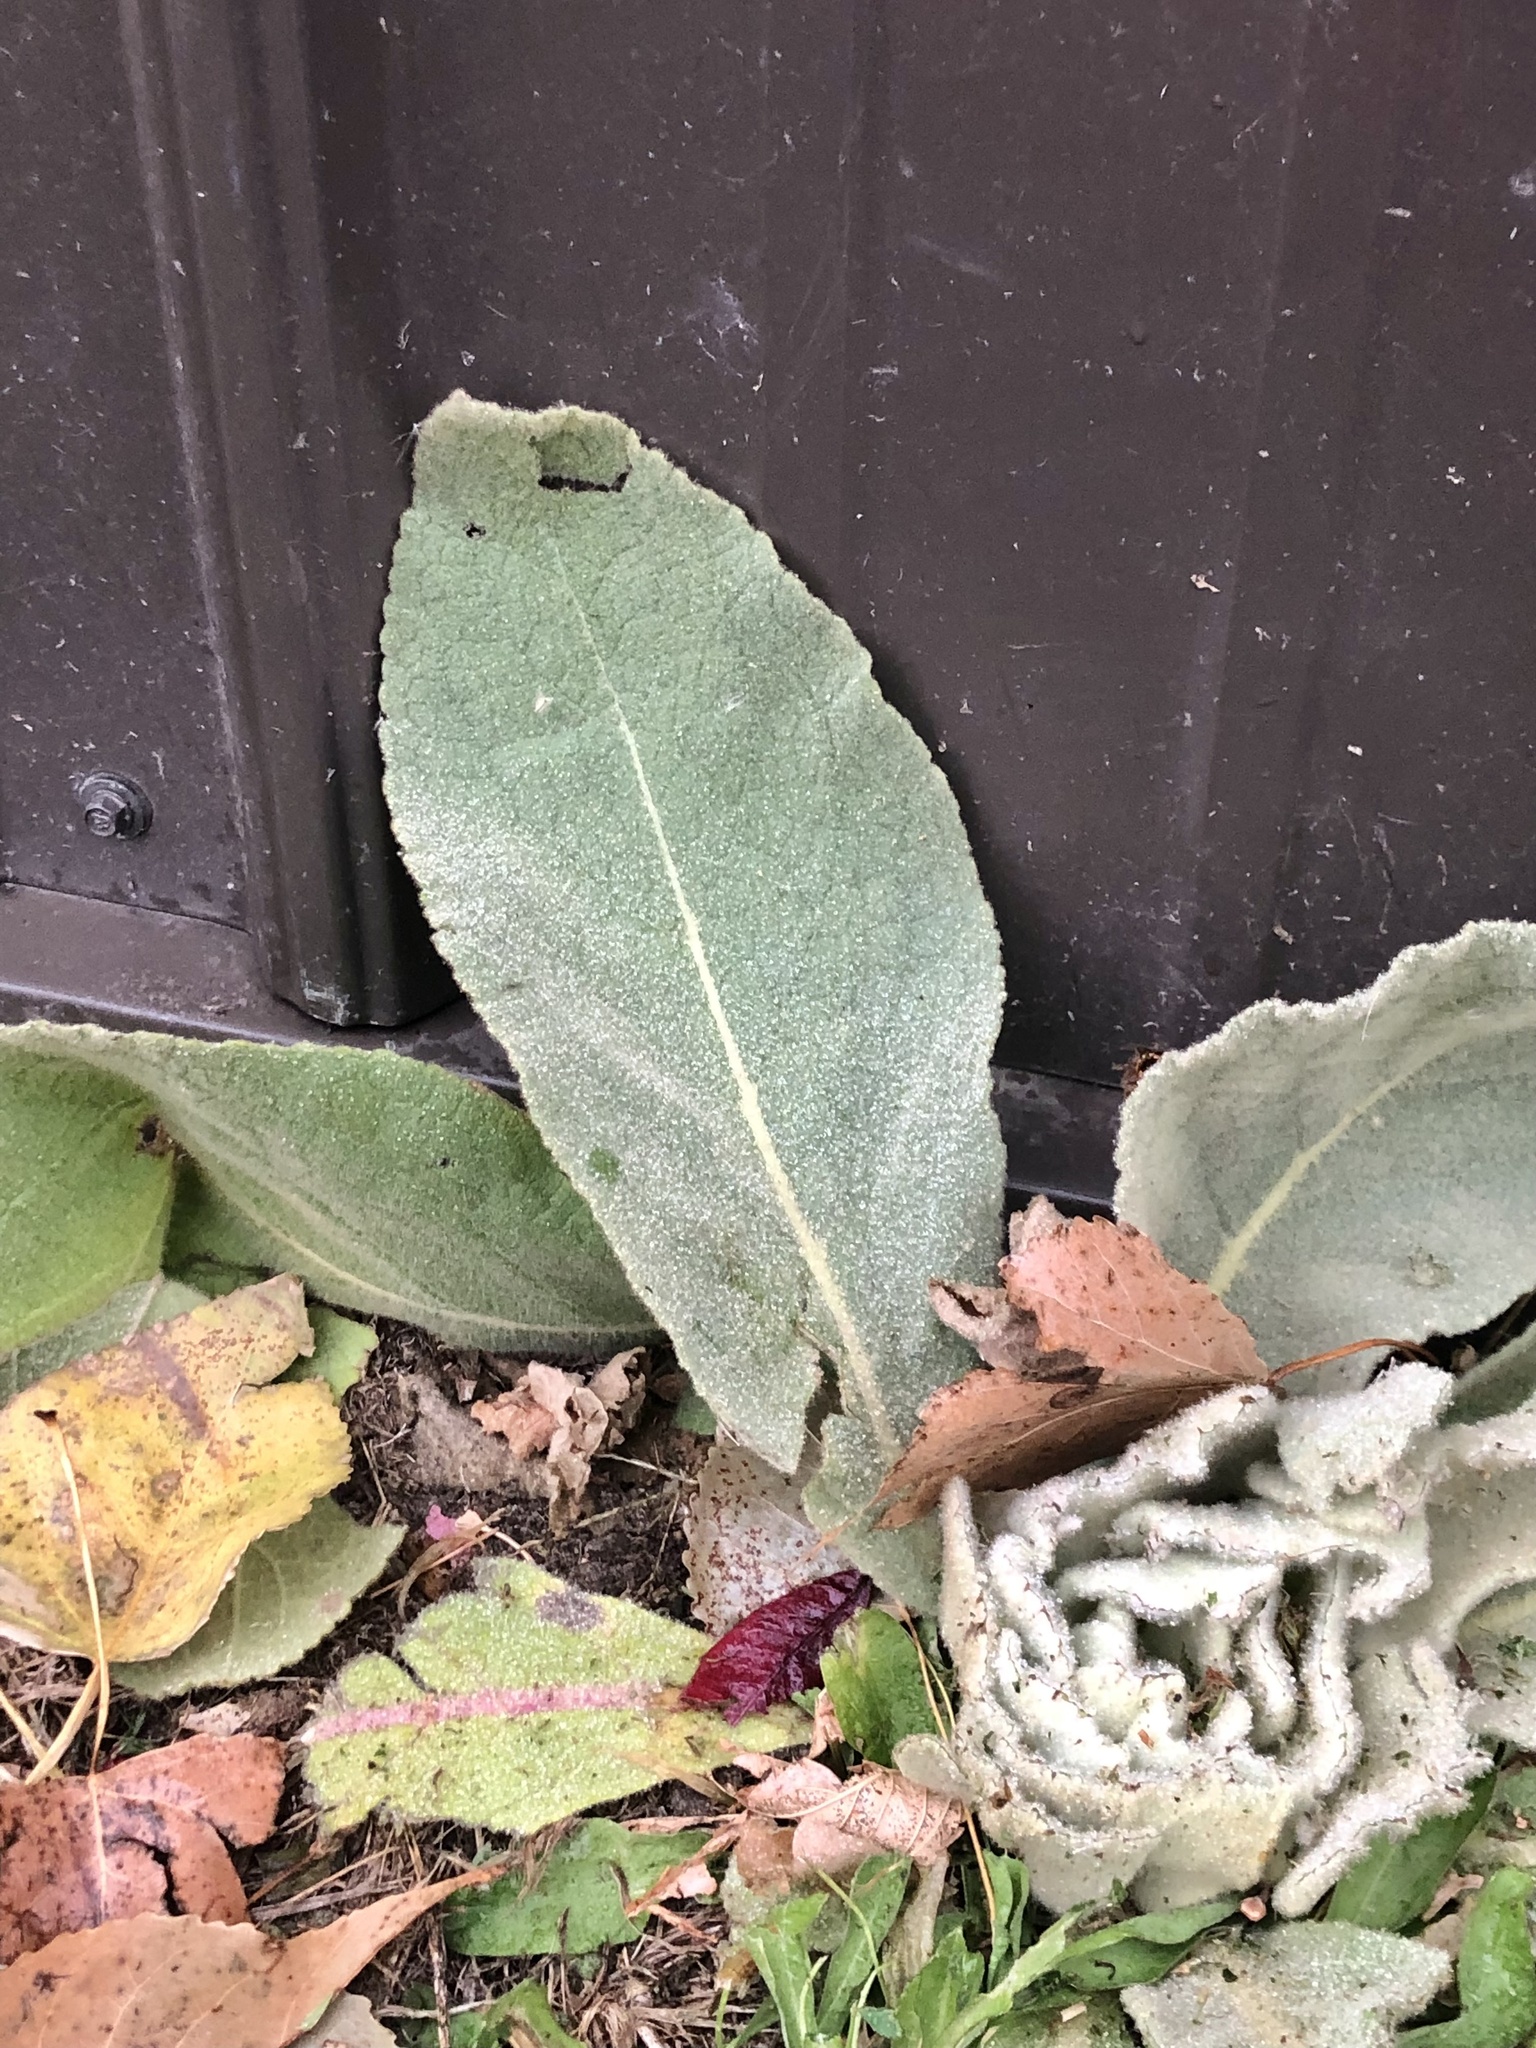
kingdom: Plantae
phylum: Tracheophyta
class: Magnoliopsida
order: Lamiales
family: Scrophulariaceae
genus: Verbascum
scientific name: Verbascum thapsus
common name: Common mullein
